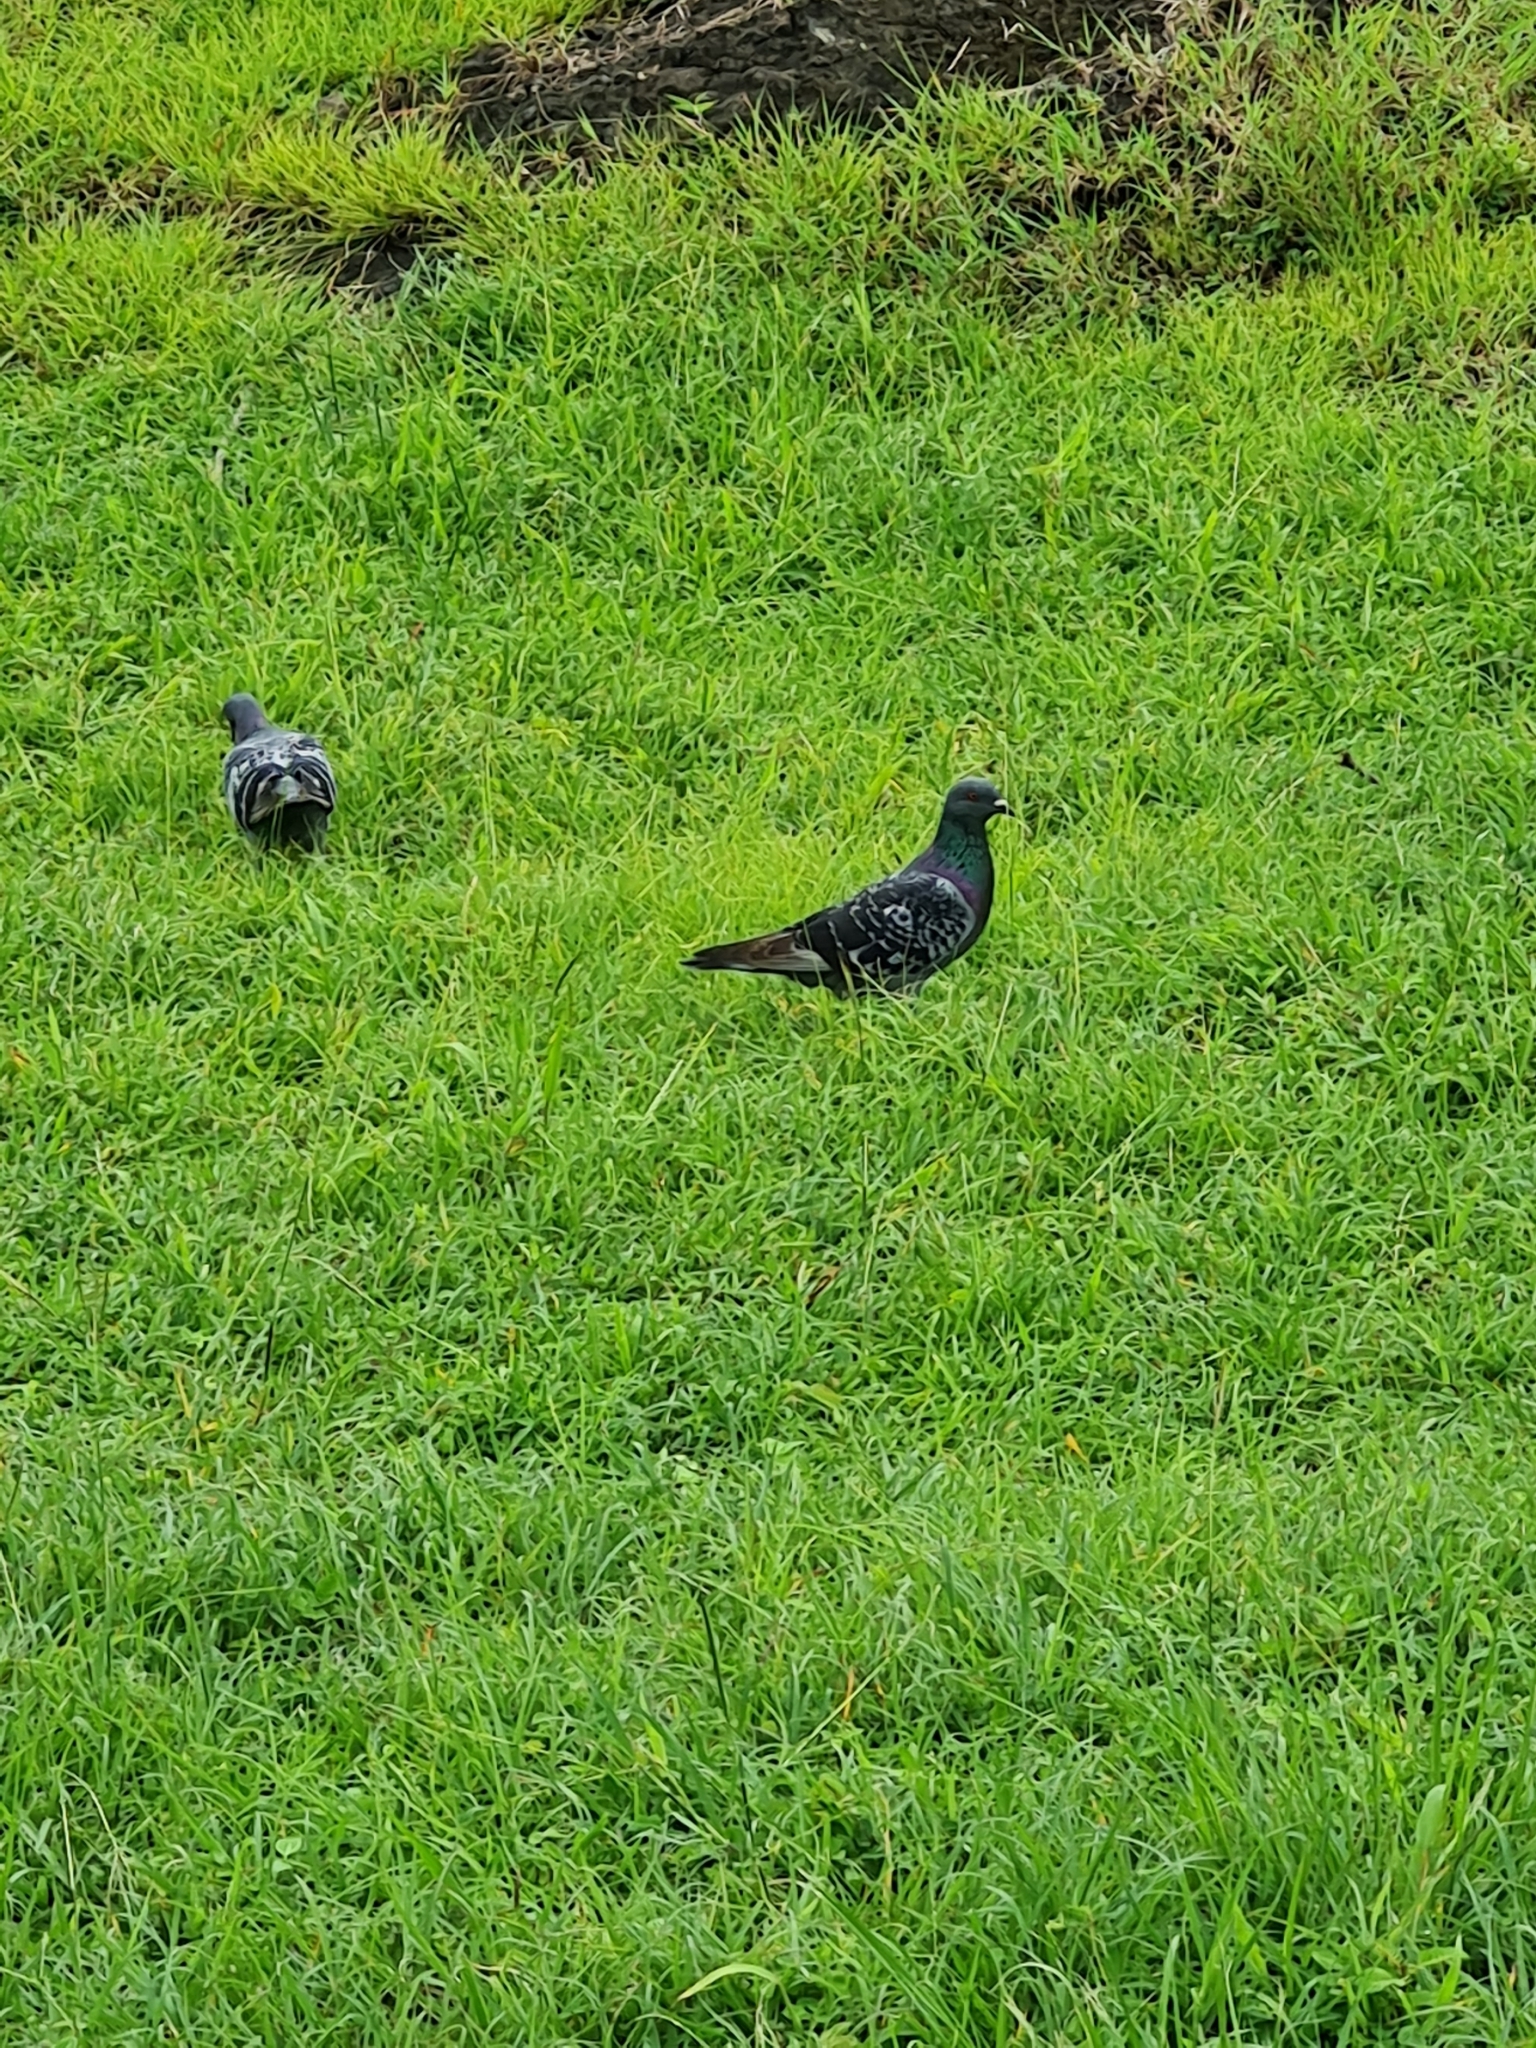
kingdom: Animalia
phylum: Chordata
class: Aves
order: Columbiformes
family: Columbidae
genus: Columba
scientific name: Columba livia
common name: Rock pigeon
